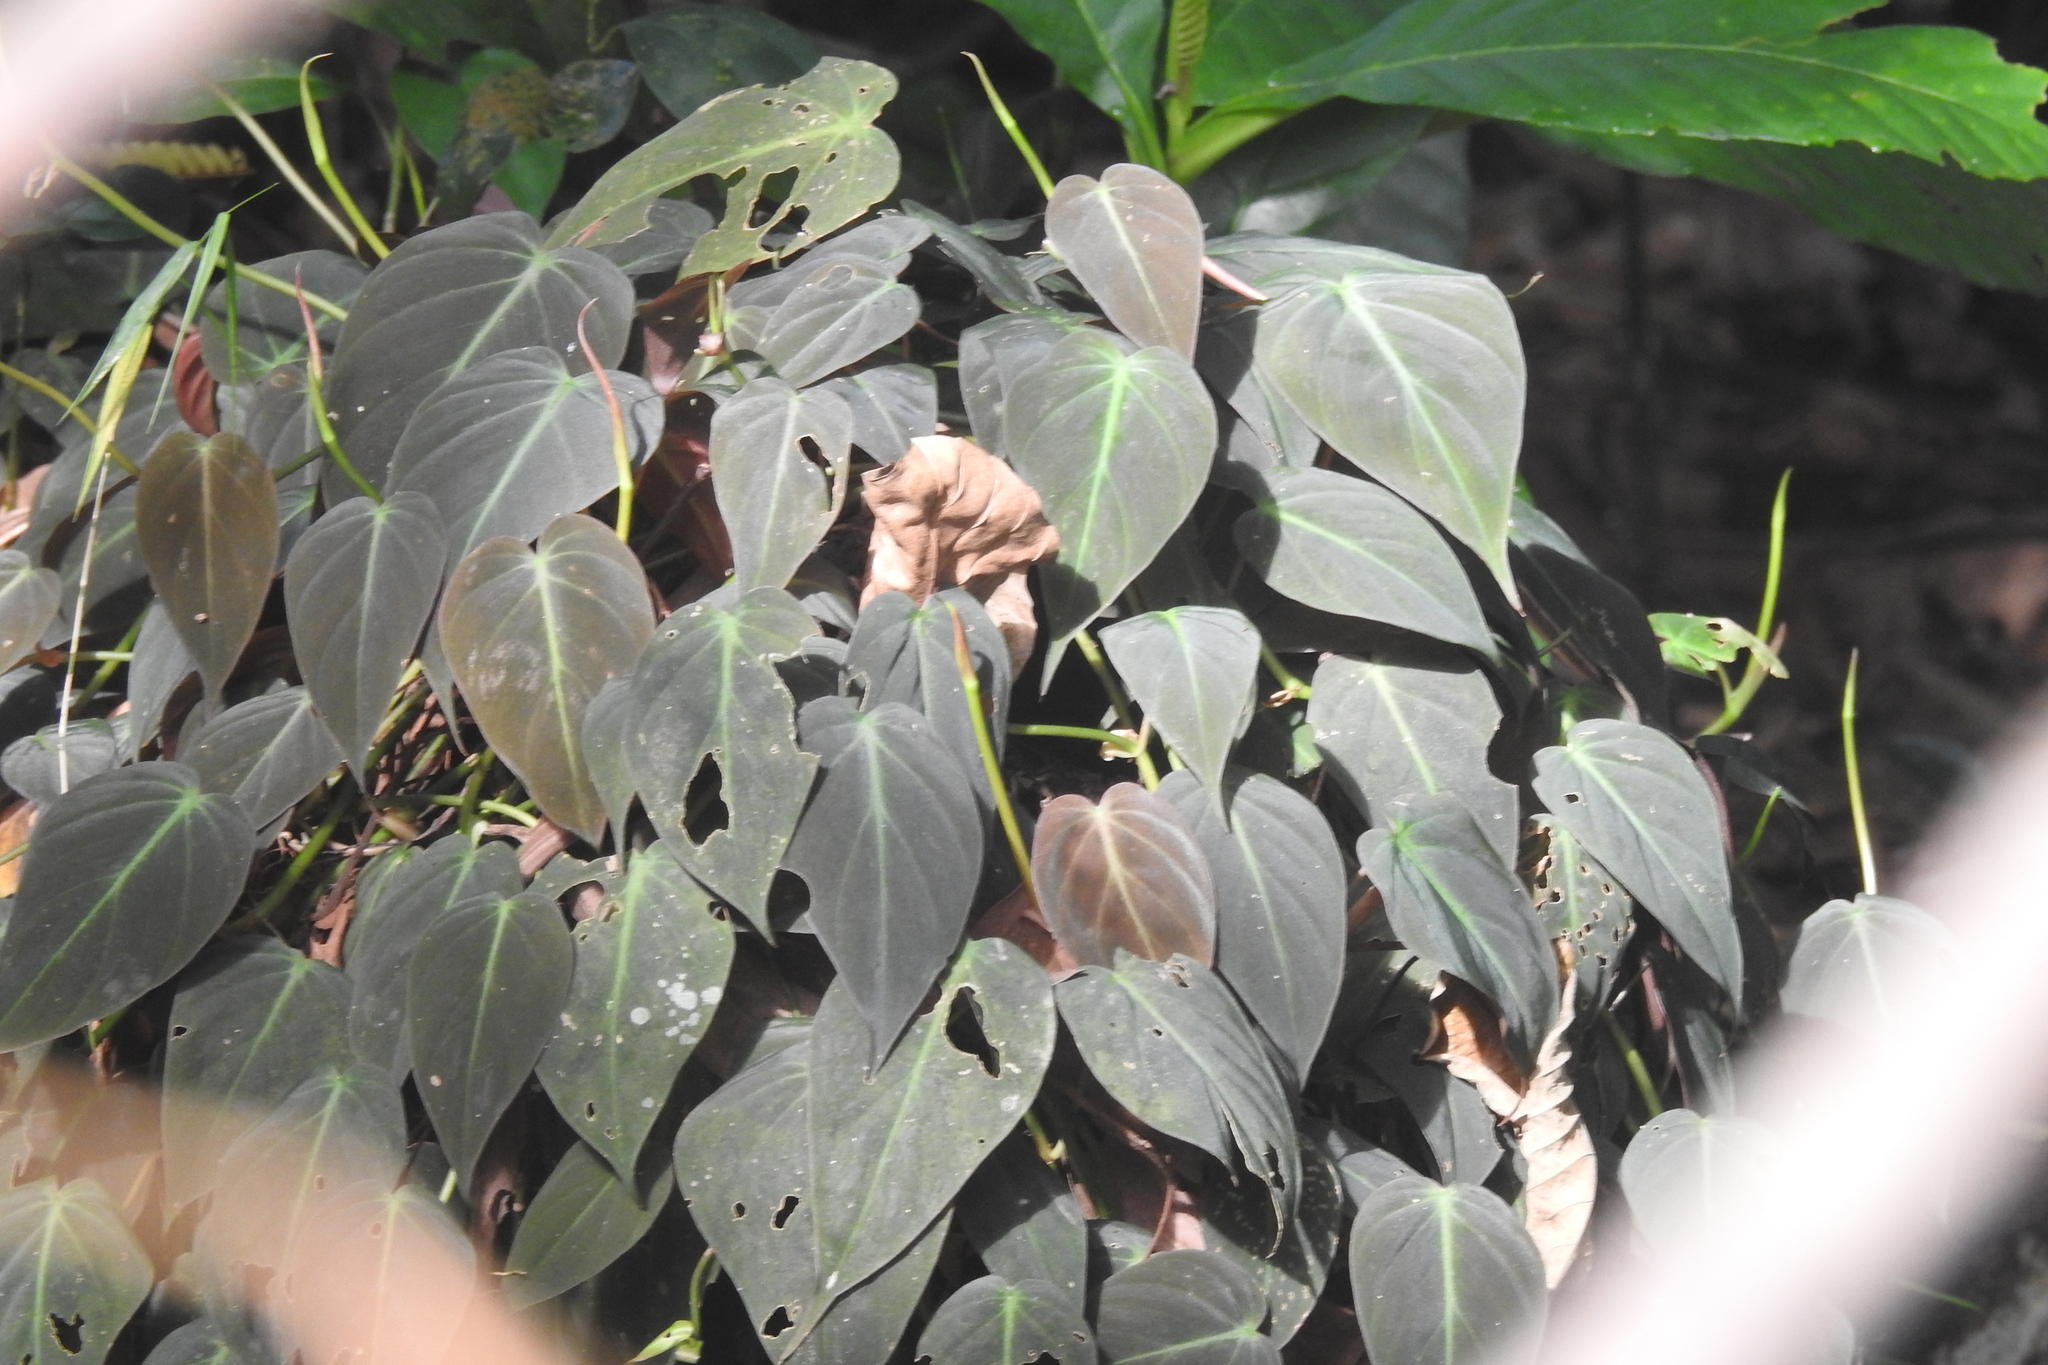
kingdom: Plantae
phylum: Tracheophyta
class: Liliopsida
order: Alismatales
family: Araceae
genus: Philodendron
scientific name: Philodendron hederaceum
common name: Vilevine
